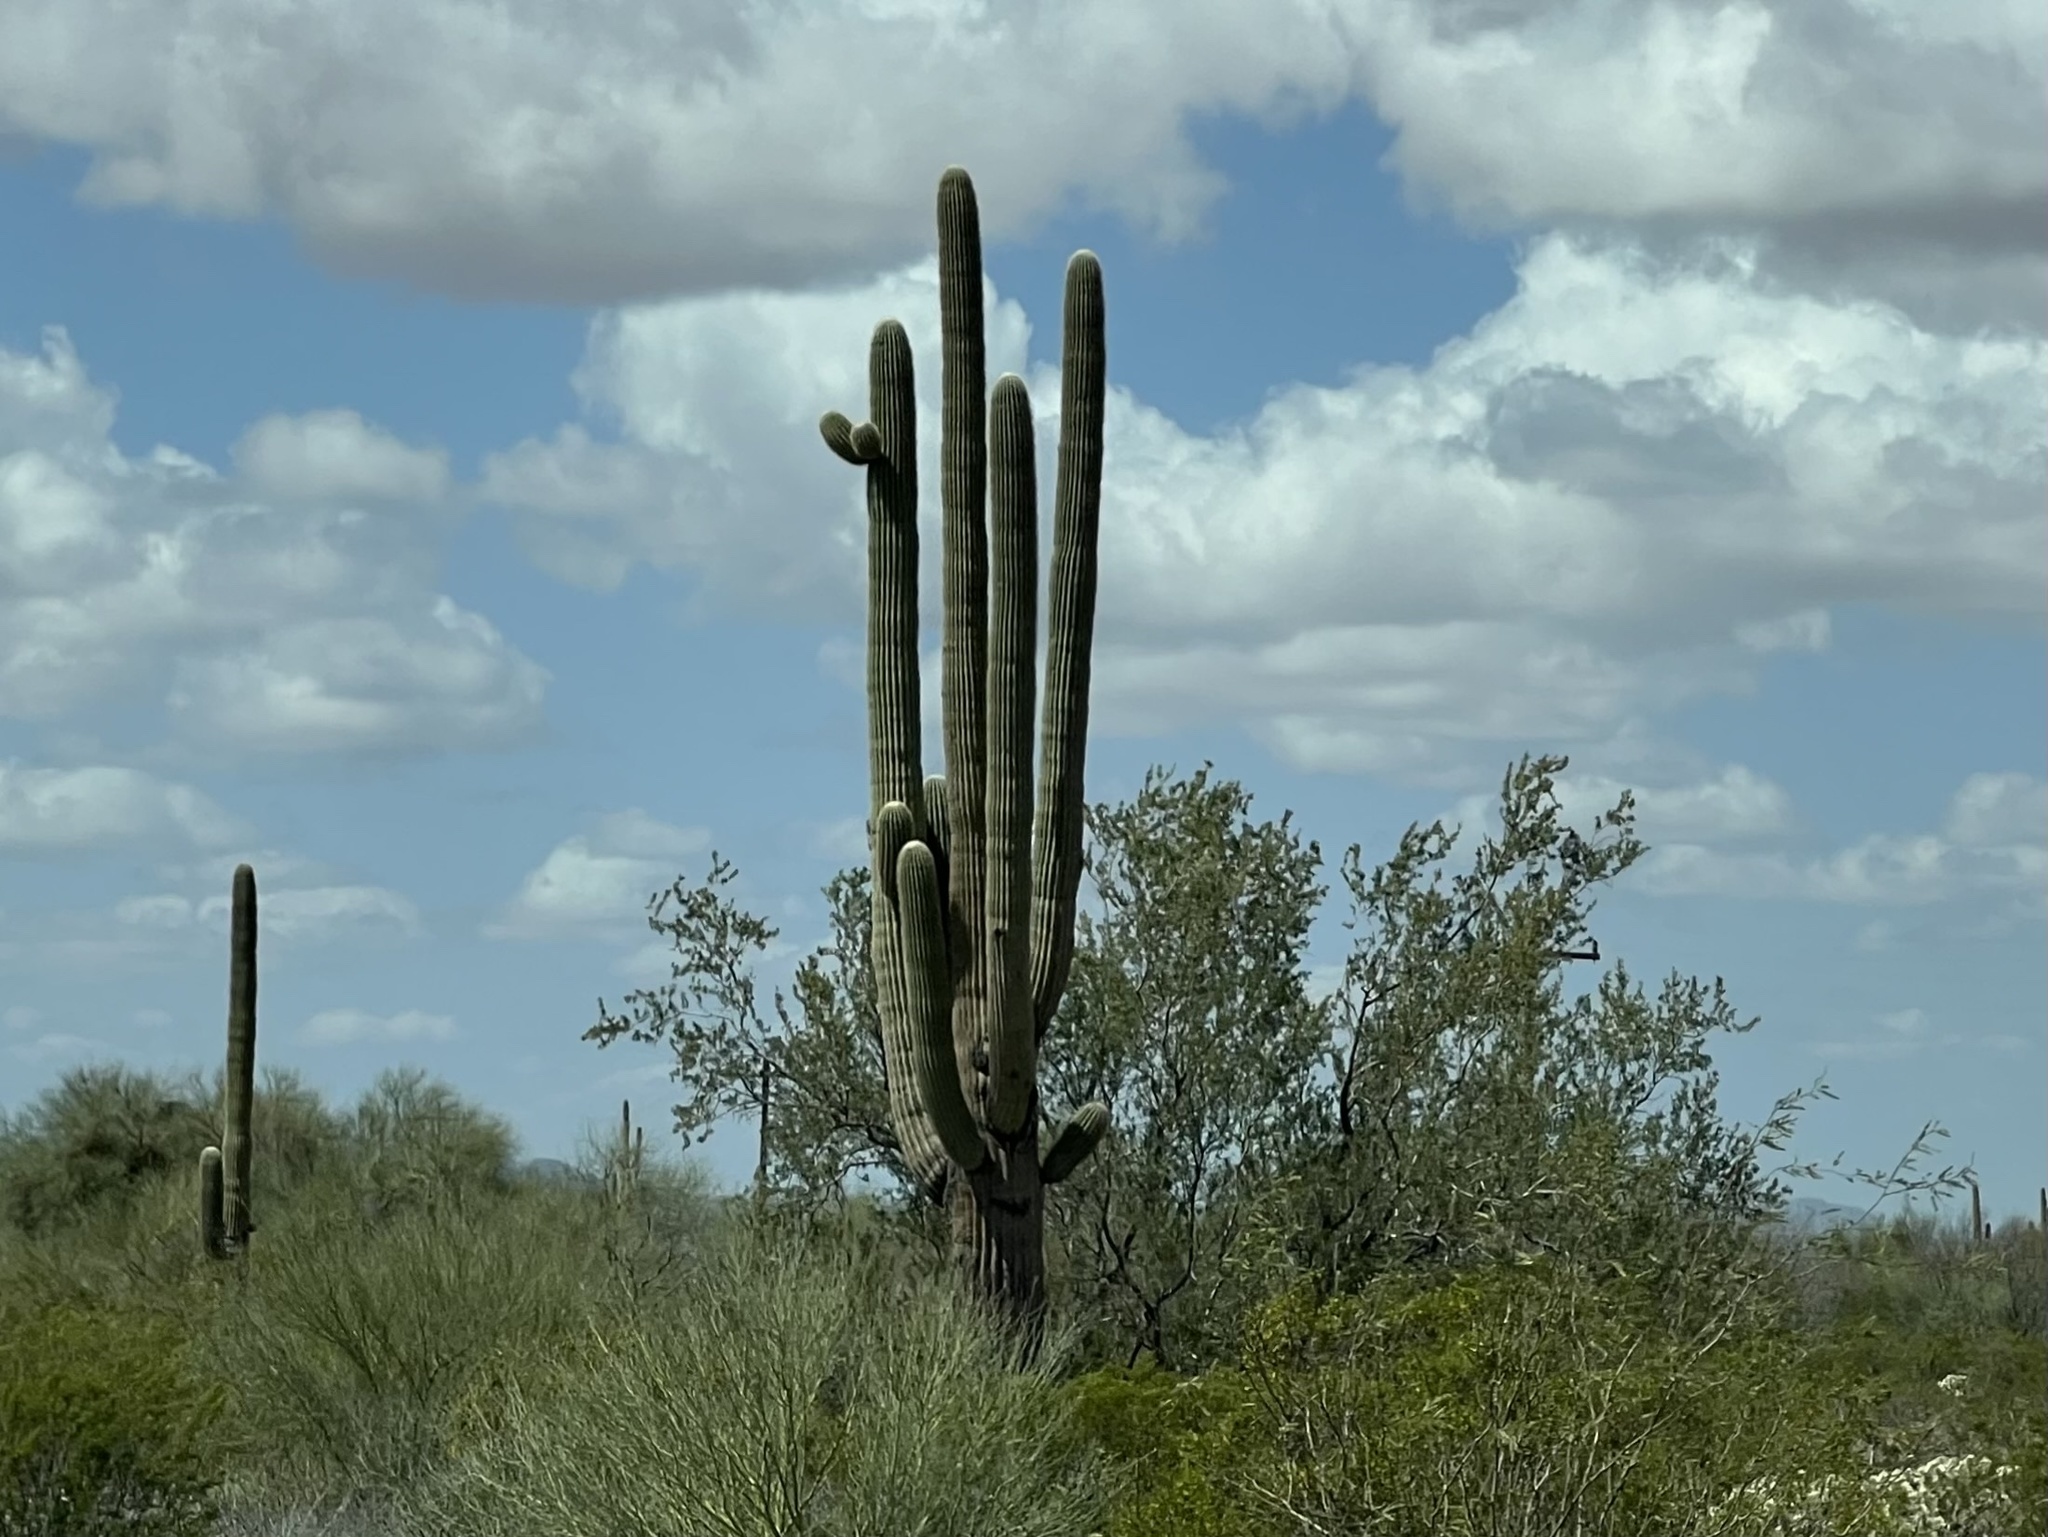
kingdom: Plantae
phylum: Tracheophyta
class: Magnoliopsida
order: Caryophyllales
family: Cactaceae
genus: Carnegiea
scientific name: Carnegiea gigantea
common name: Saguaro
